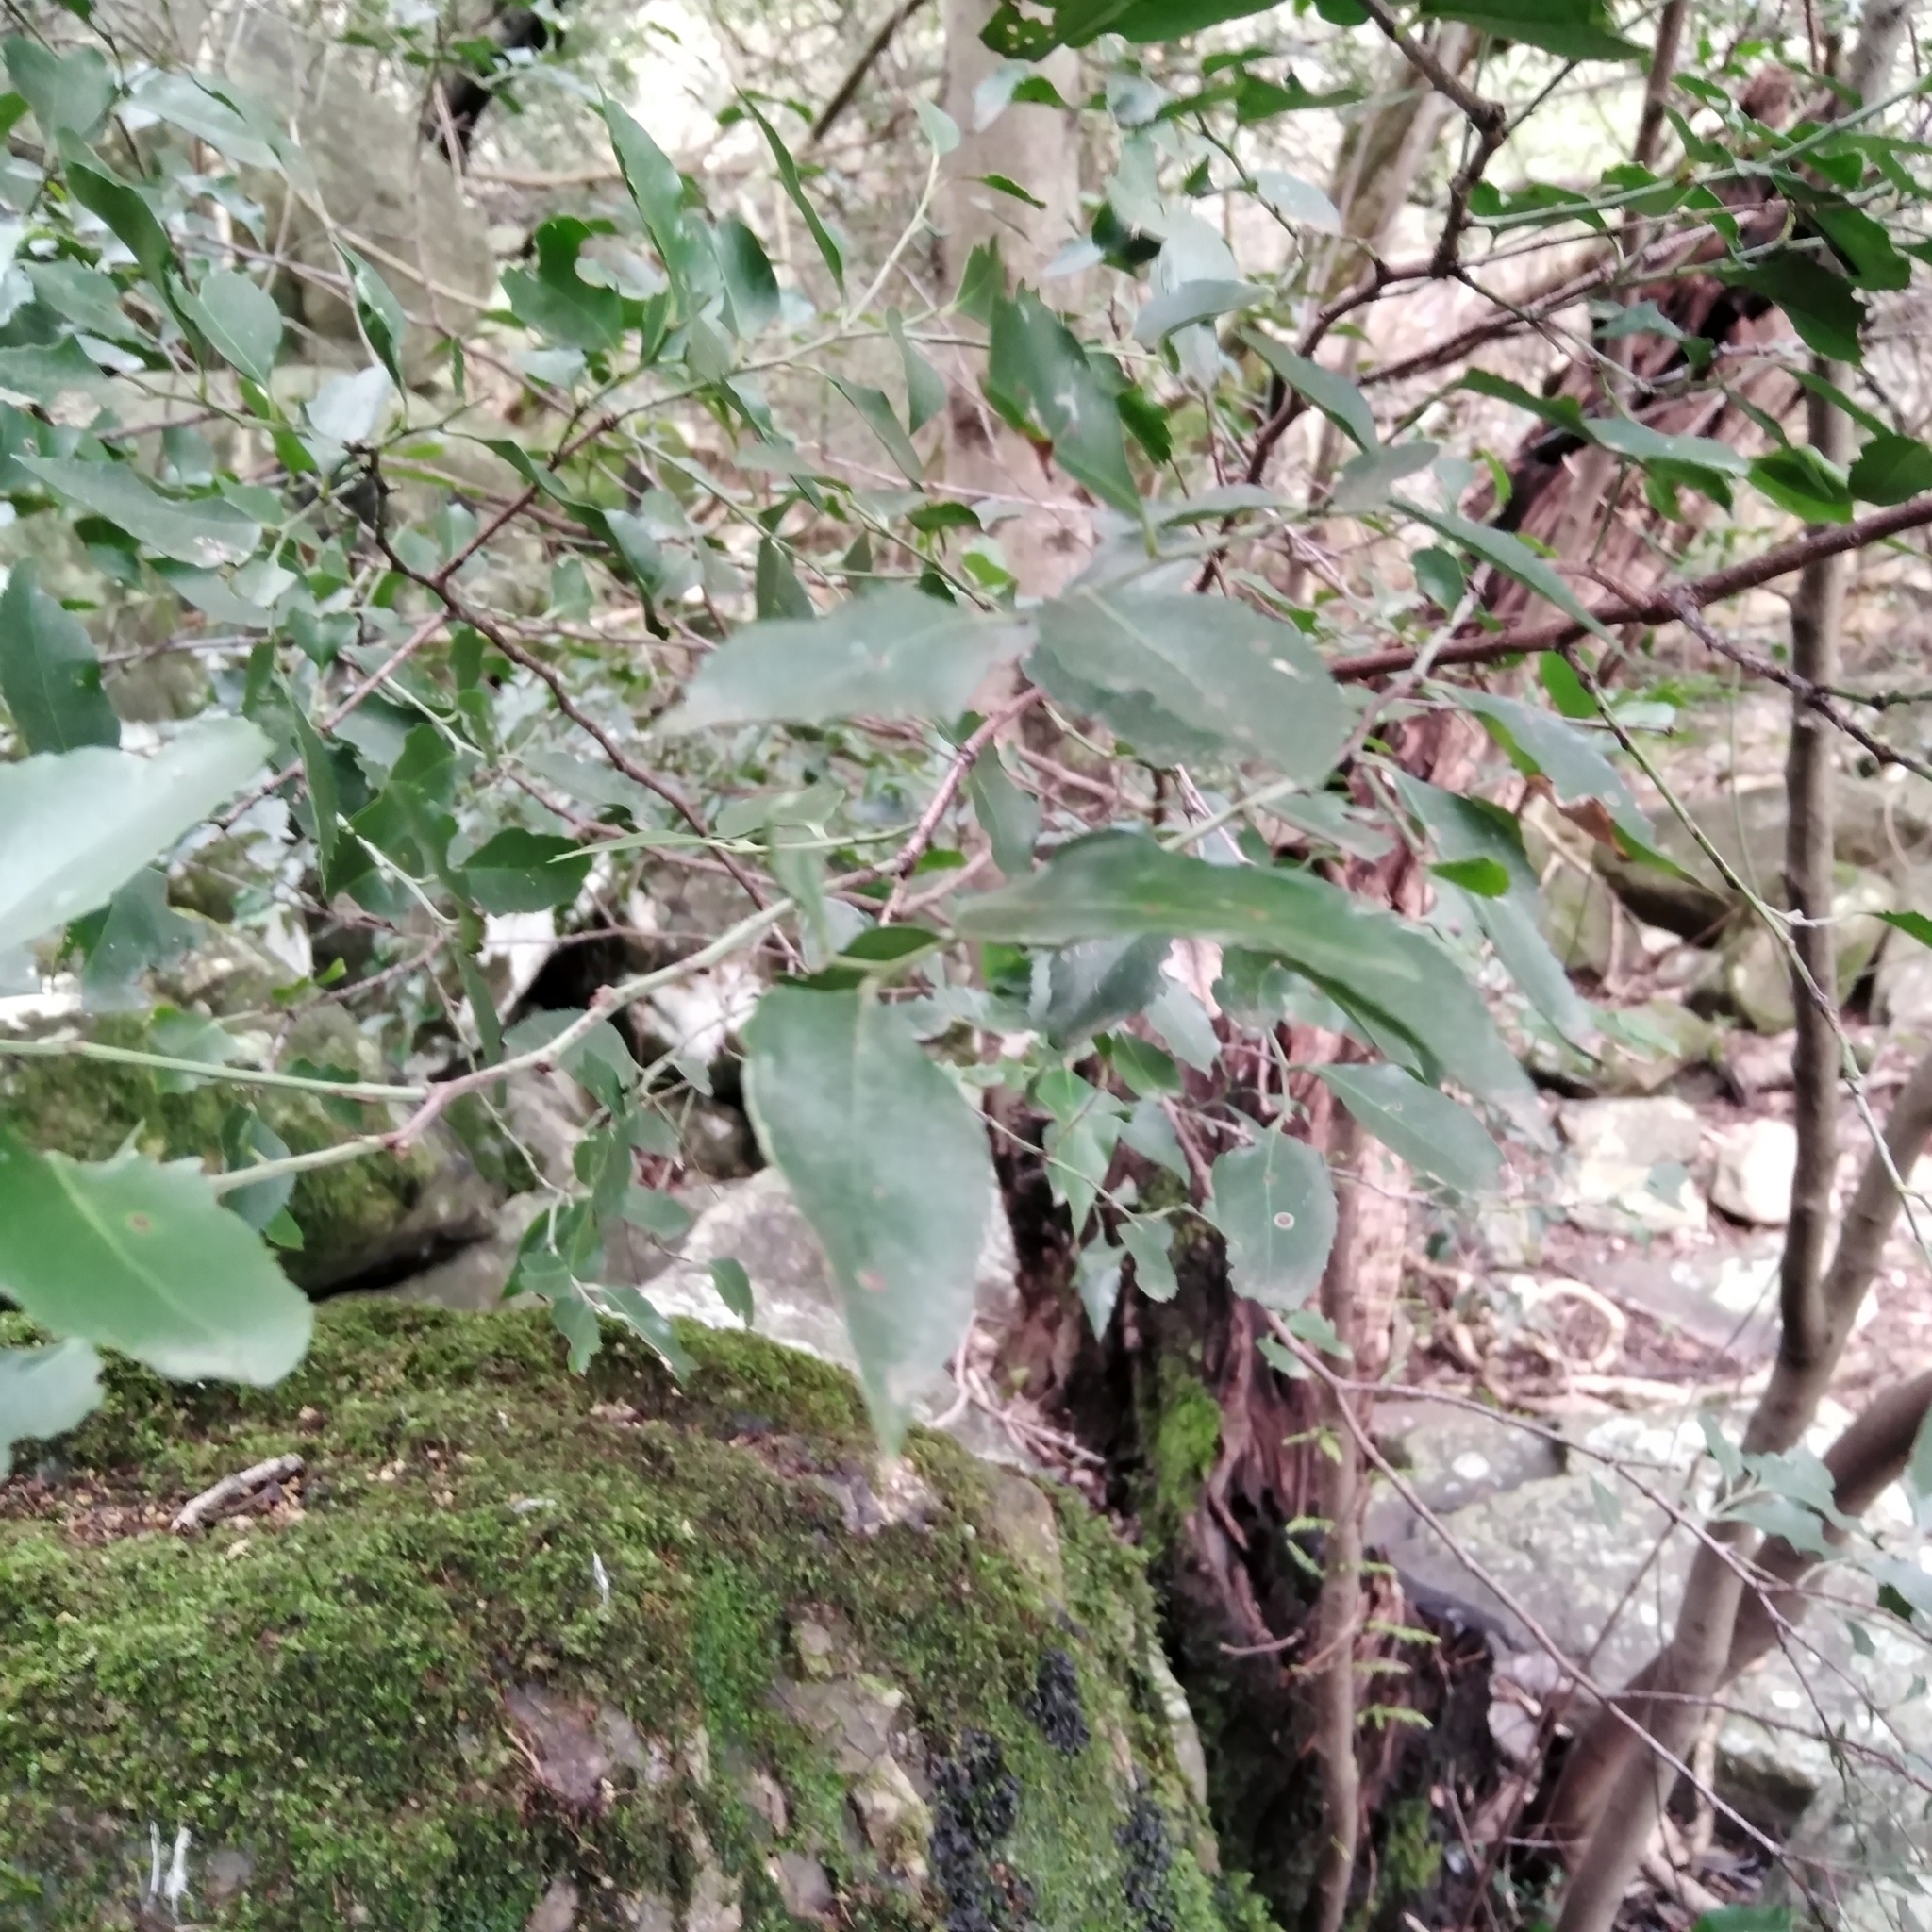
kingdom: Plantae
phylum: Tracheophyta
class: Magnoliopsida
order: Celastrales
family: Celastraceae
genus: Gymnosporia
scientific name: Gymnosporia acuminata
